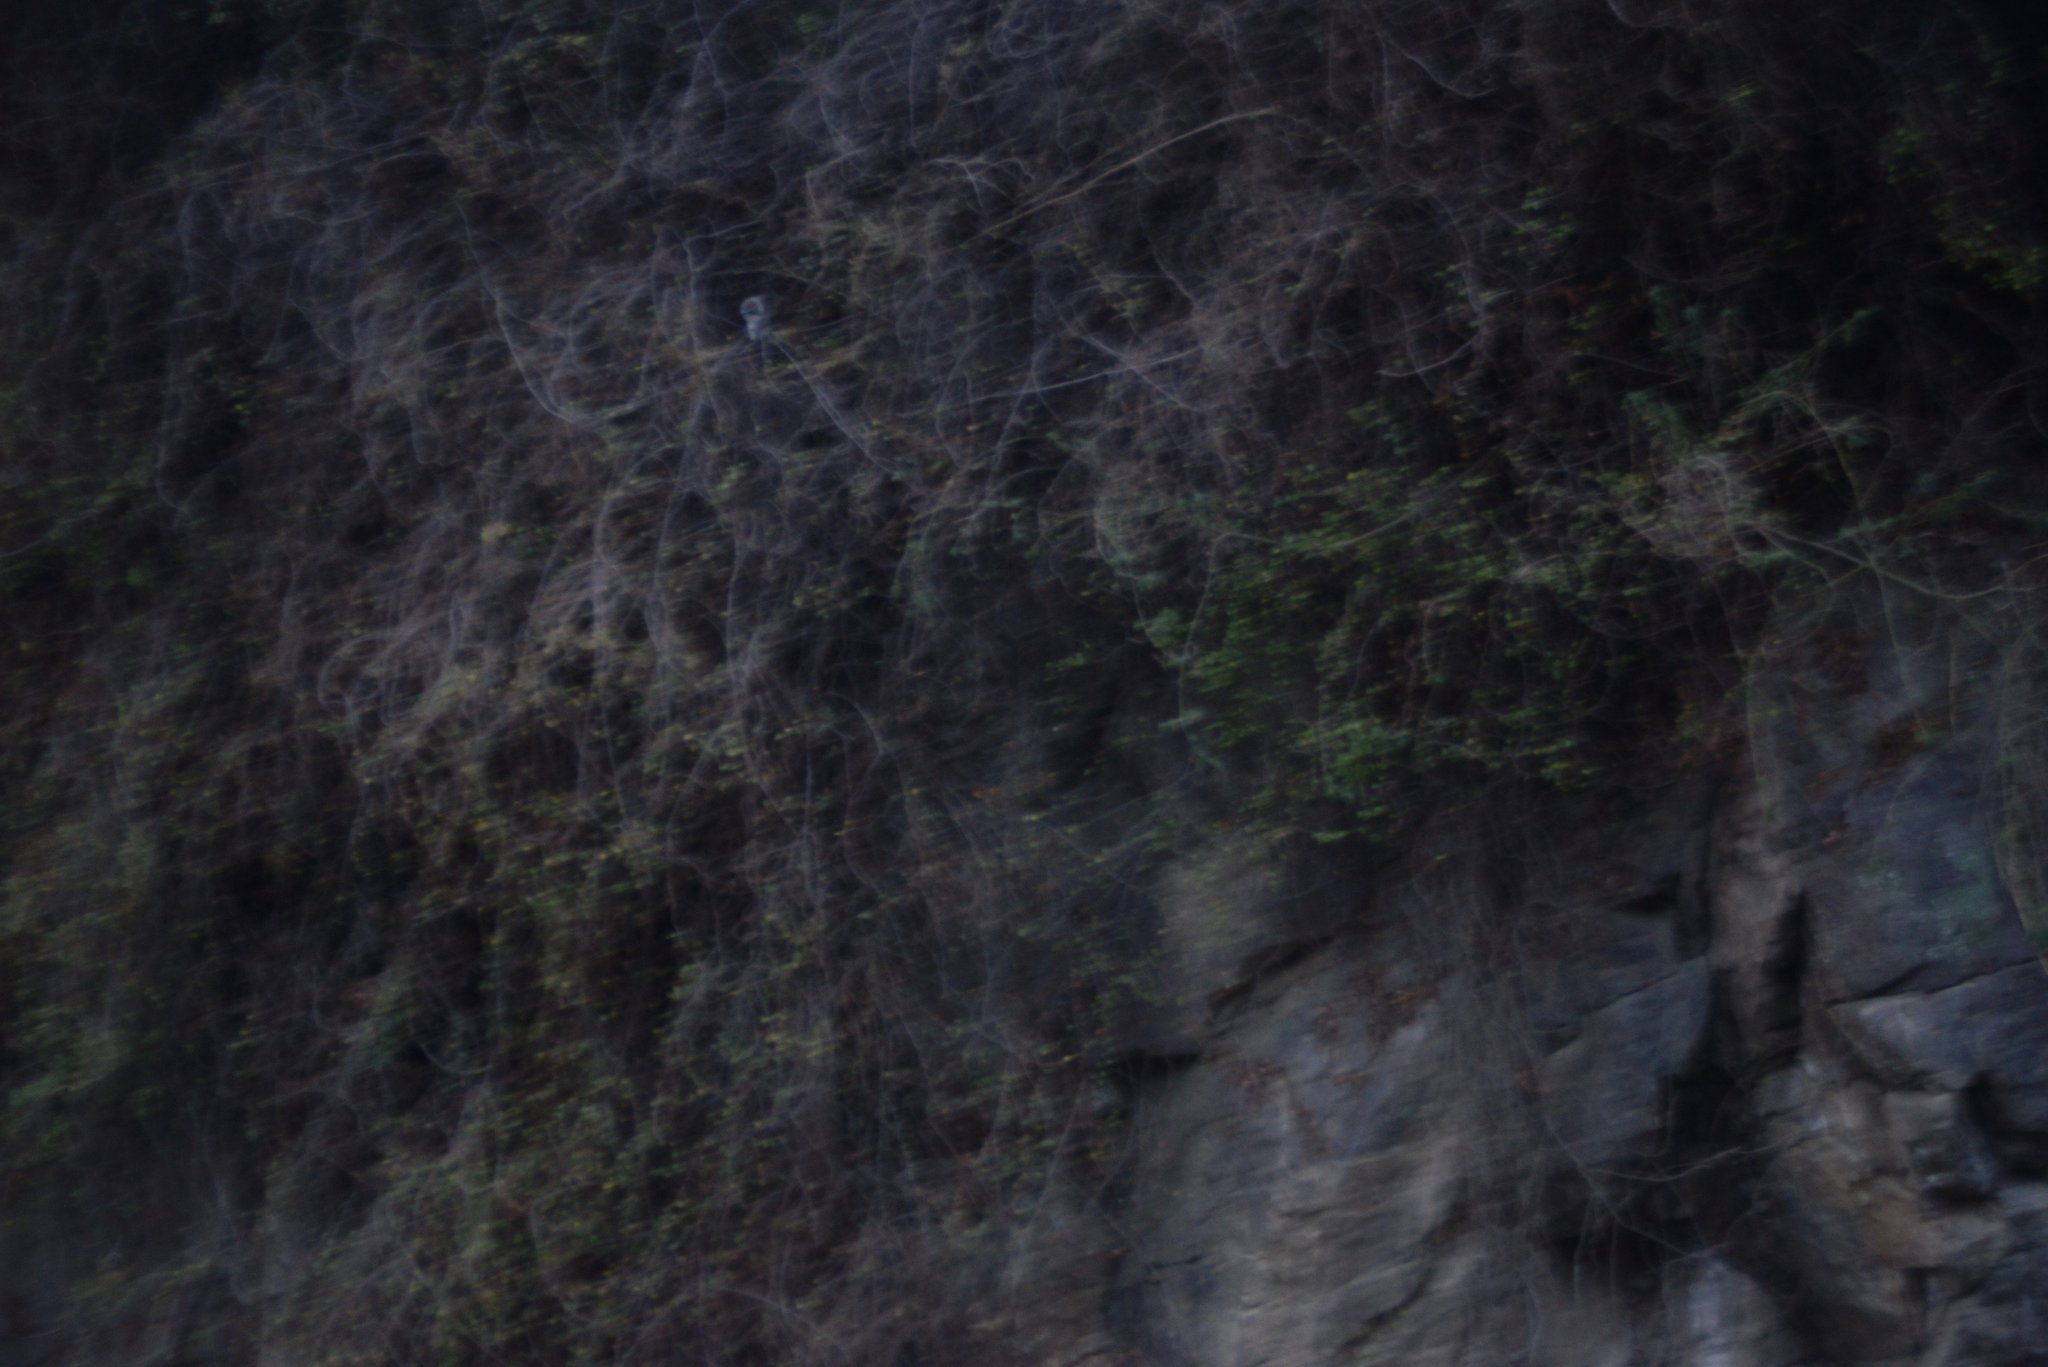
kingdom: Plantae
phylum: Tracheophyta
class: Magnoliopsida
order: Caryophyllales
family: Polygonaceae
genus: Muehlenbeckia
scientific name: Muehlenbeckia complexa
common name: Wireplant
